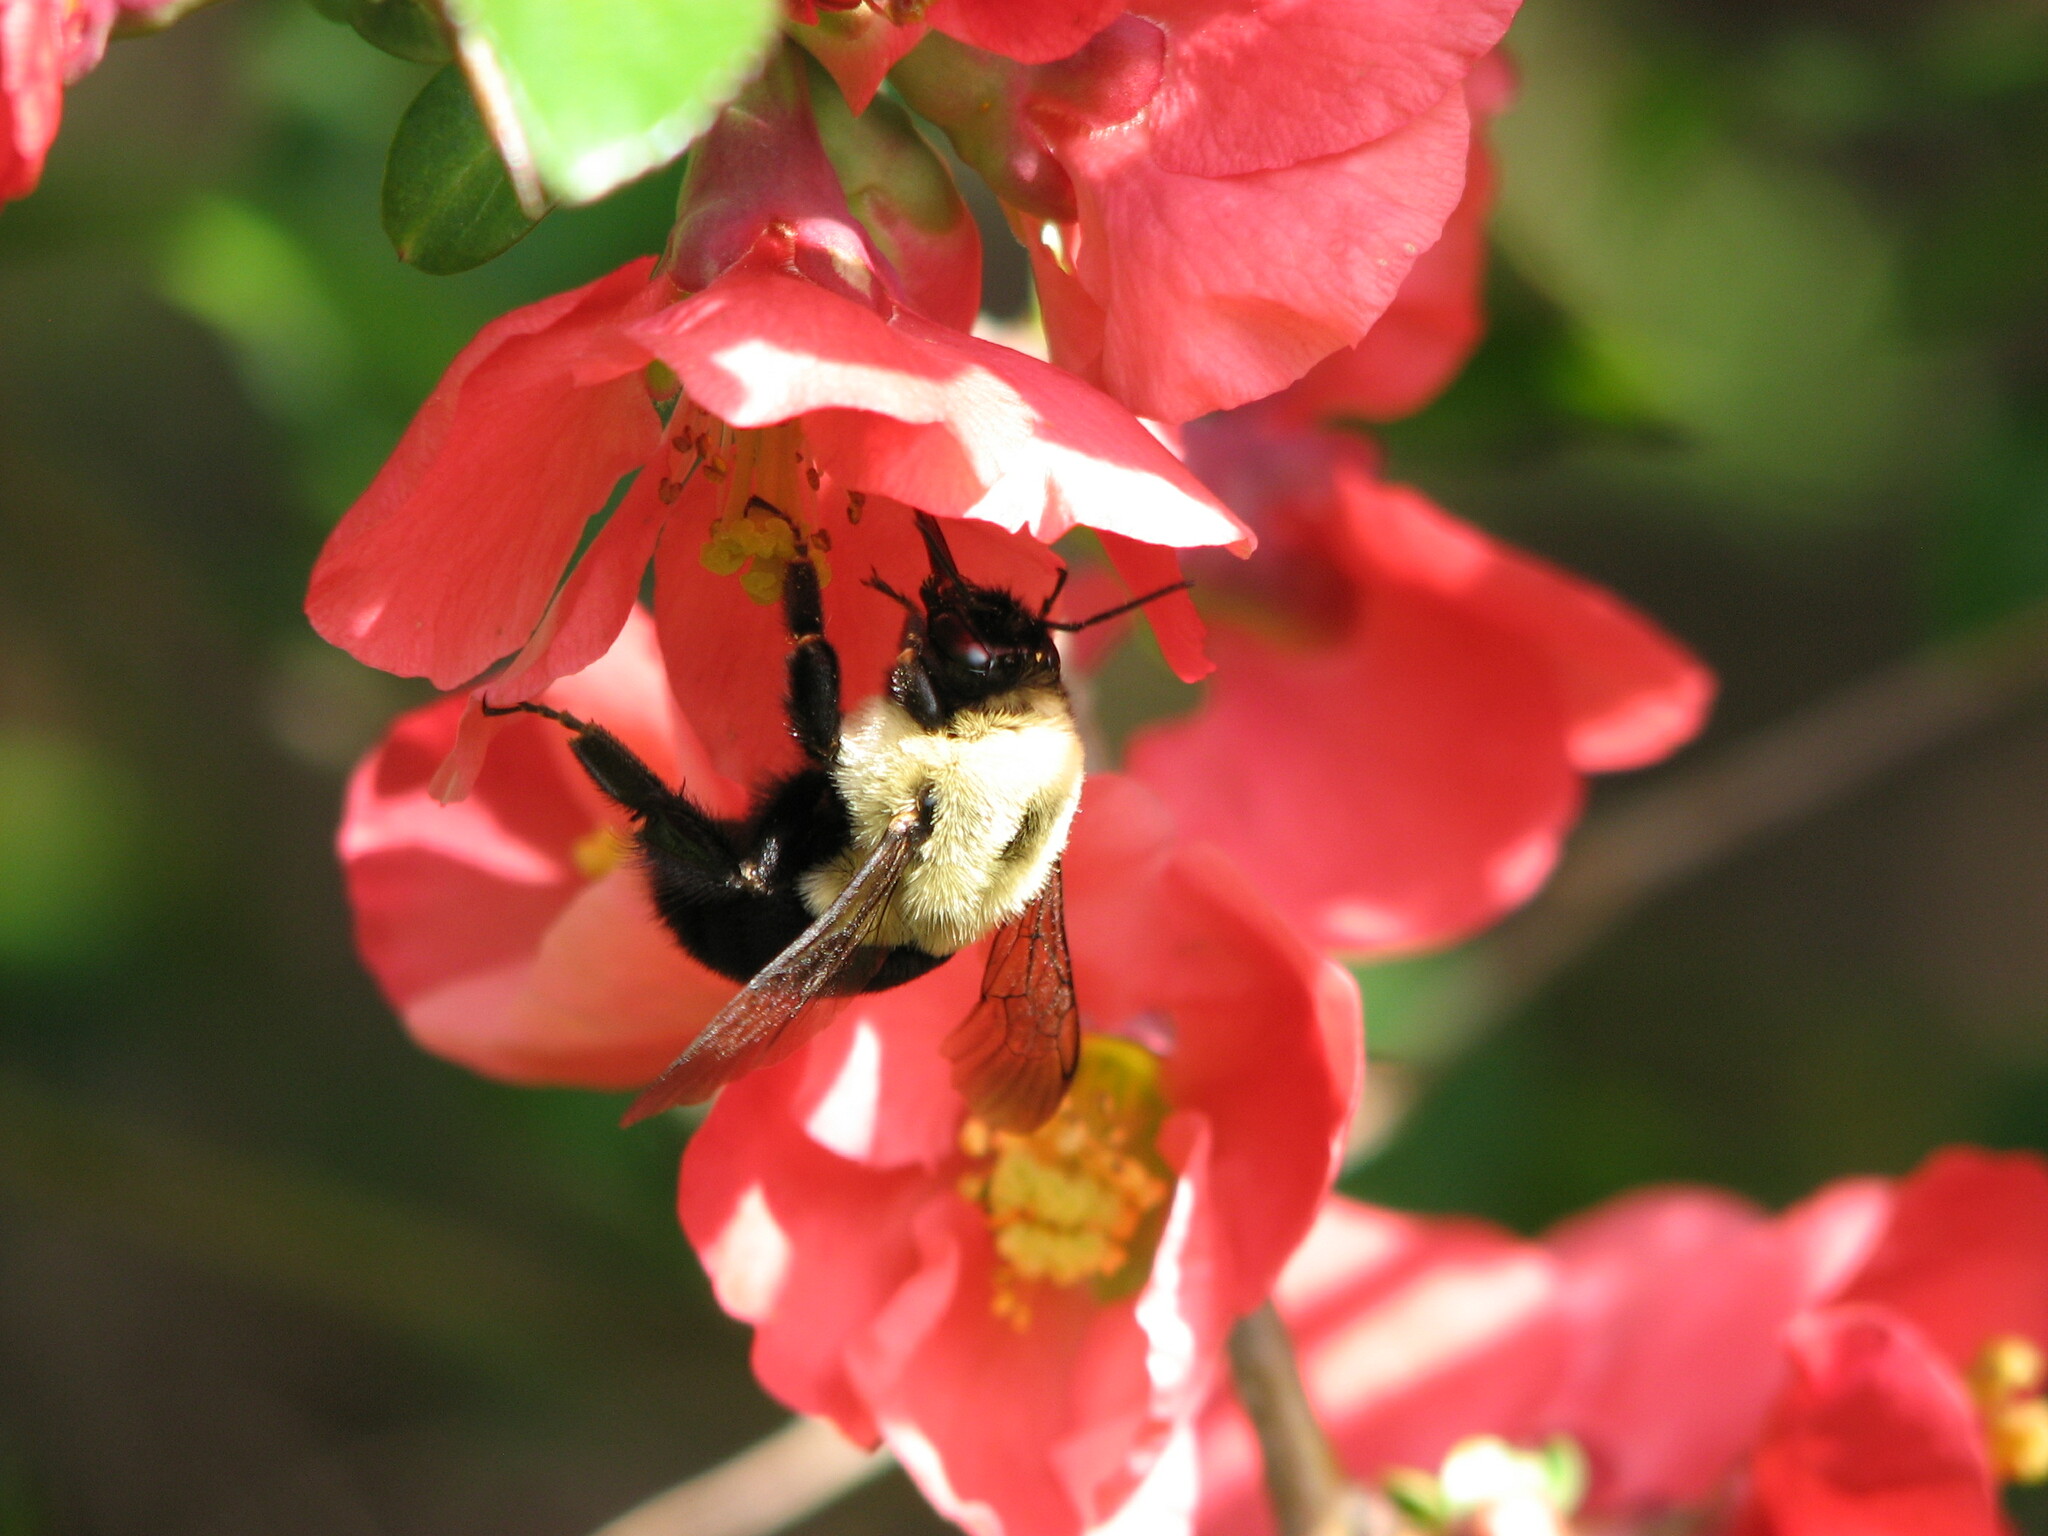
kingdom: Animalia
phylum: Arthropoda
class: Insecta
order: Hymenoptera
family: Apidae
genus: Bombus
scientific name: Bombus impatiens
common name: Common eastern bumble bee
